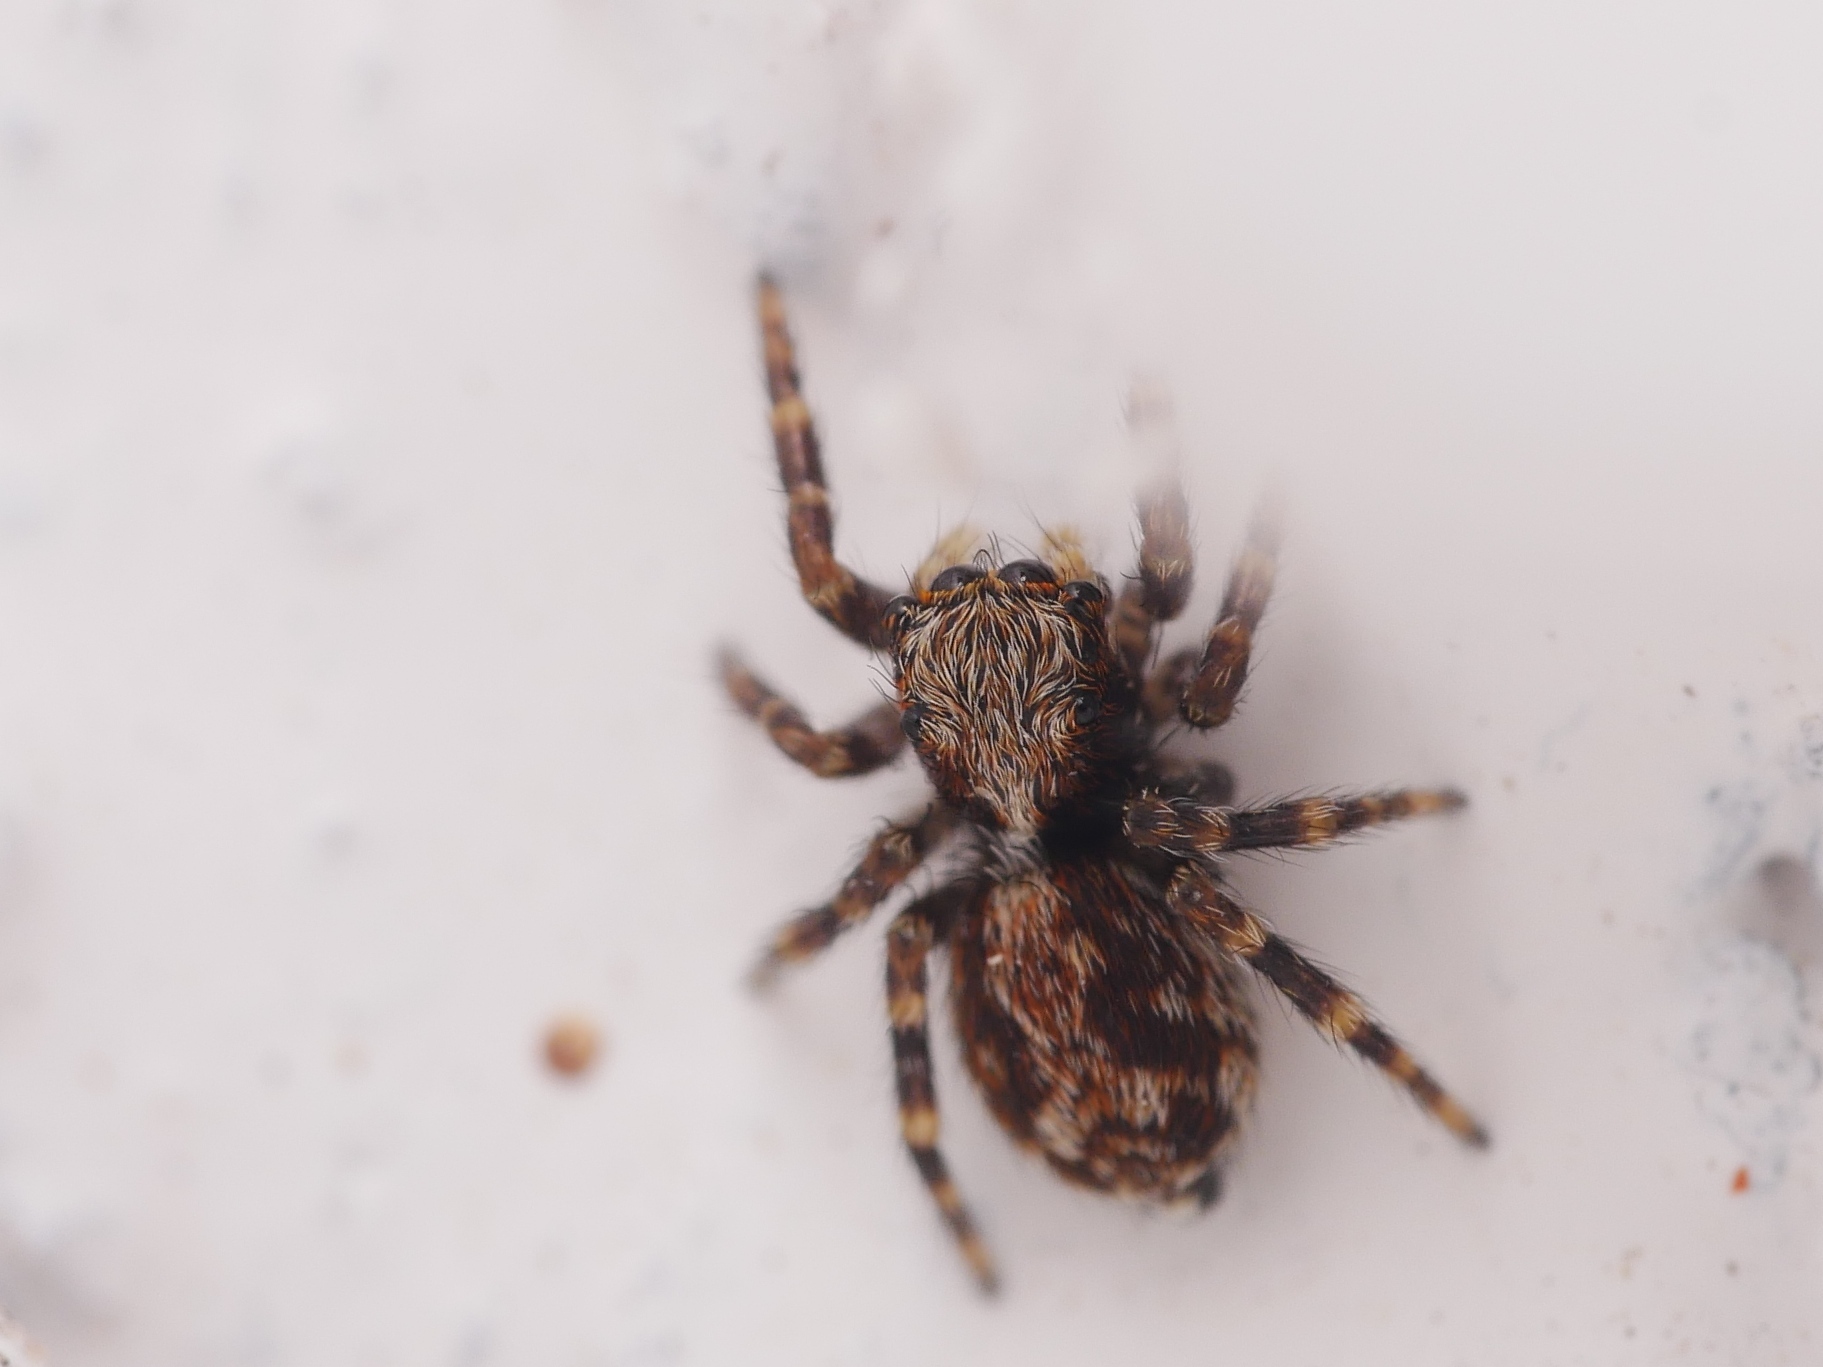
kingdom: Animalia
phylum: Arthropoda
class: Arachnida
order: Araneae
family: Salticidae
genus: Pseudeuophrys
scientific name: Pseudeuophrys lanigera
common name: Jumping spider
